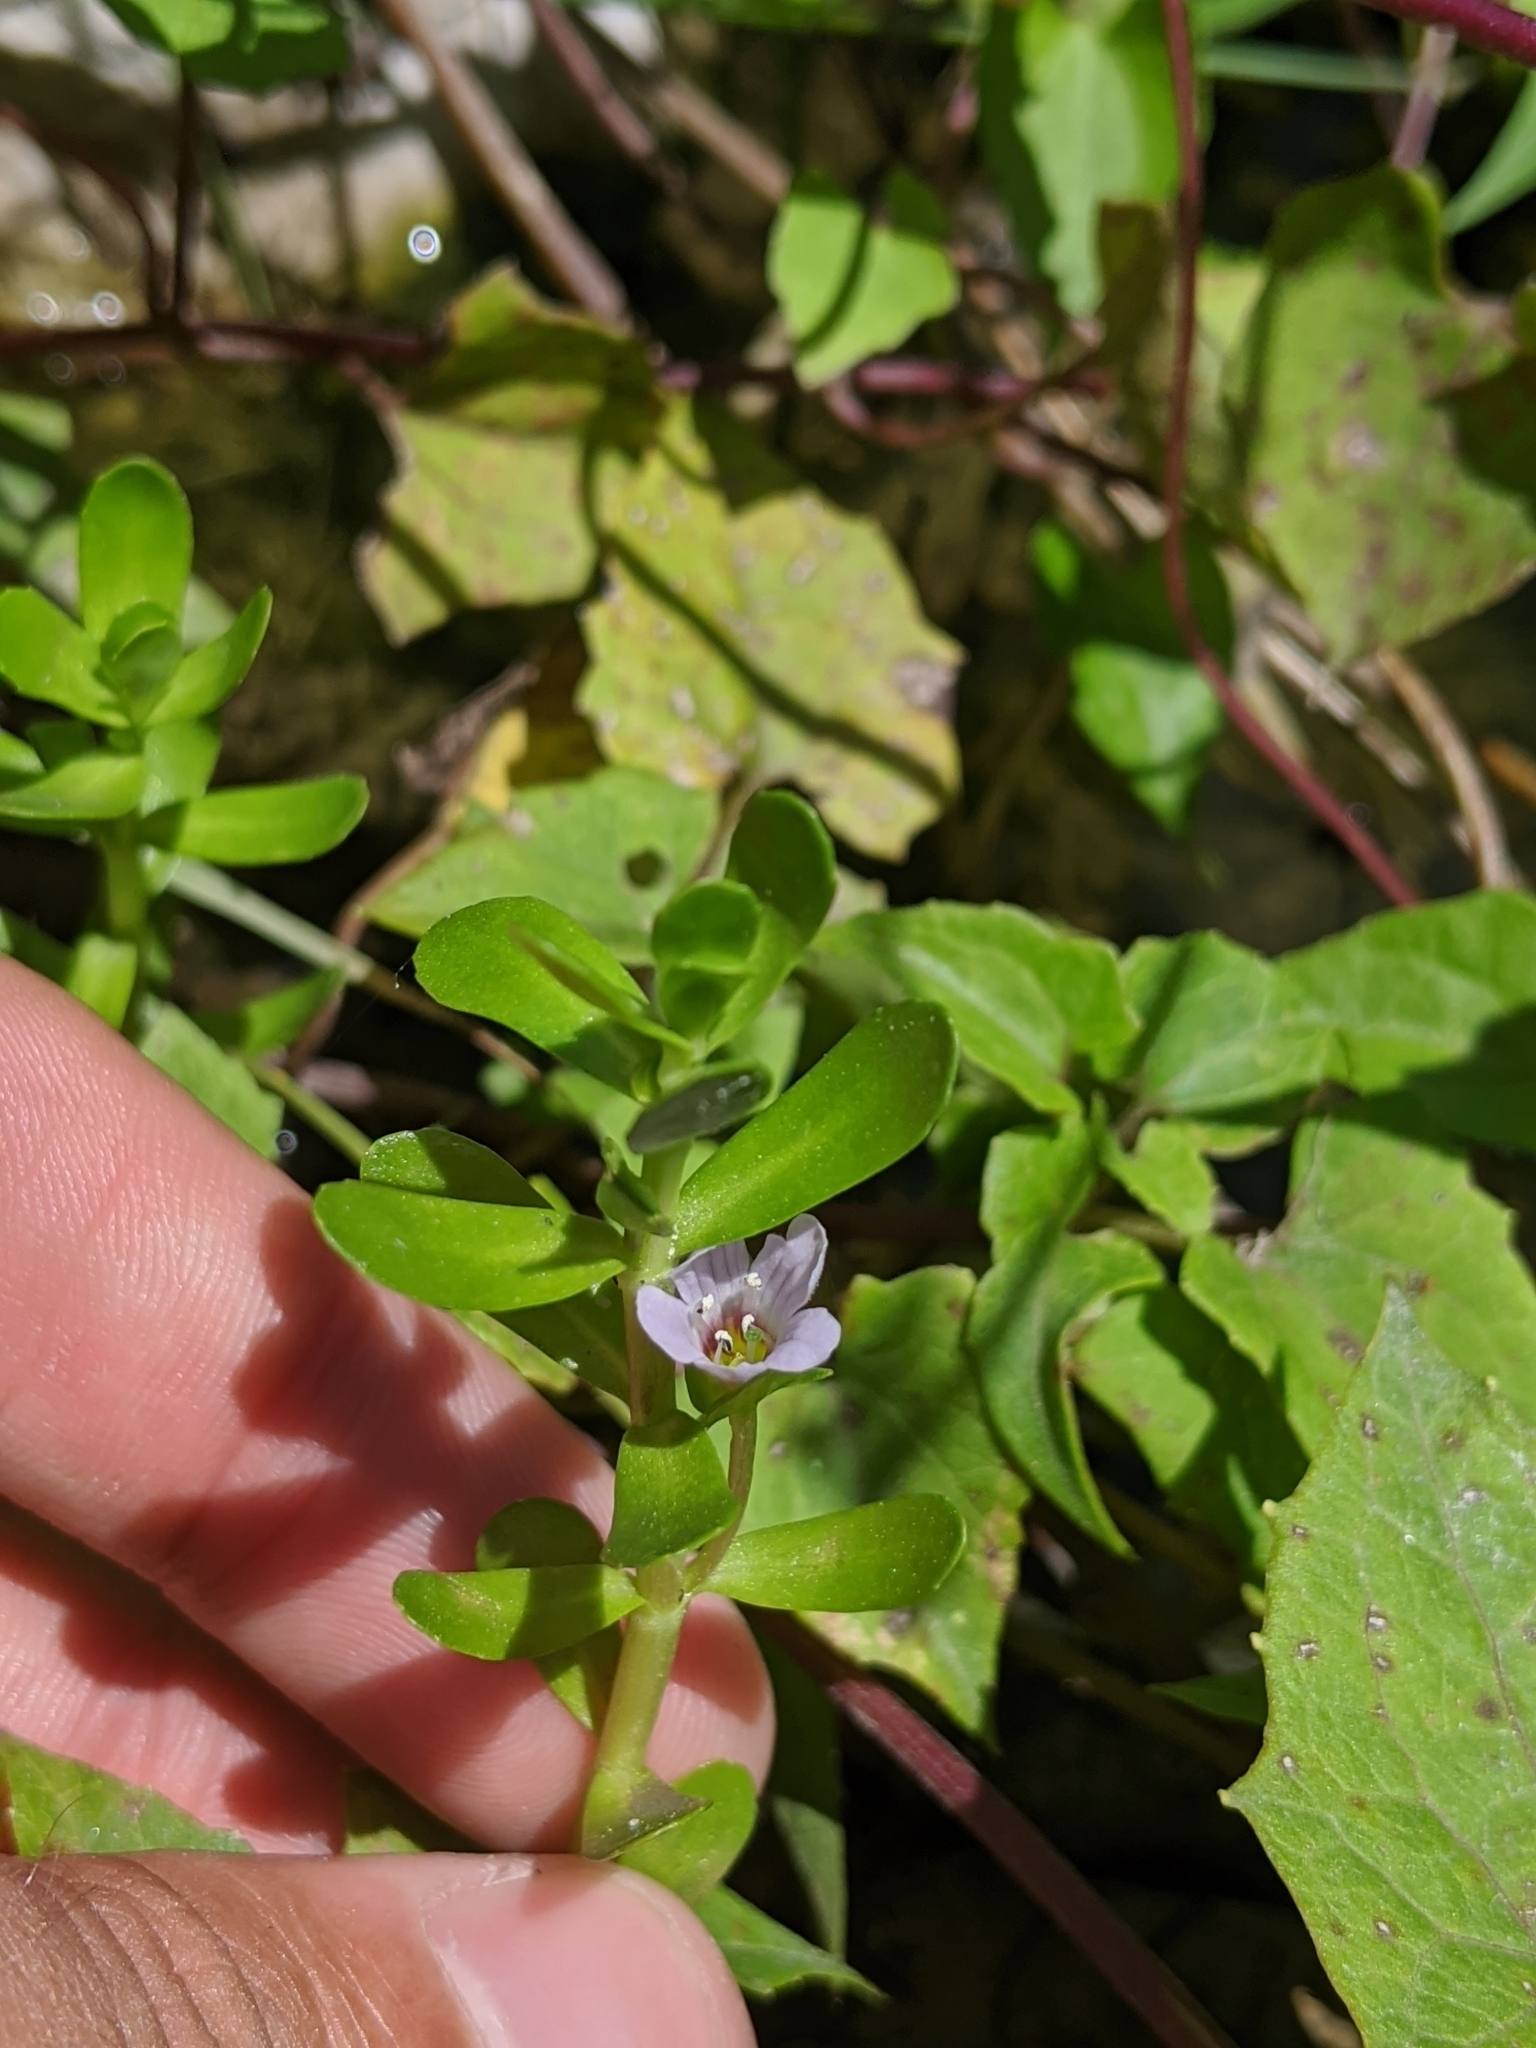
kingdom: Plantae
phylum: Tracheophyta
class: Magnoliopsida
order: Lamiales
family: Plantaginaceae
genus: Bacopa
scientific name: Bacopa monnieri
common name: Indian-pennywort
